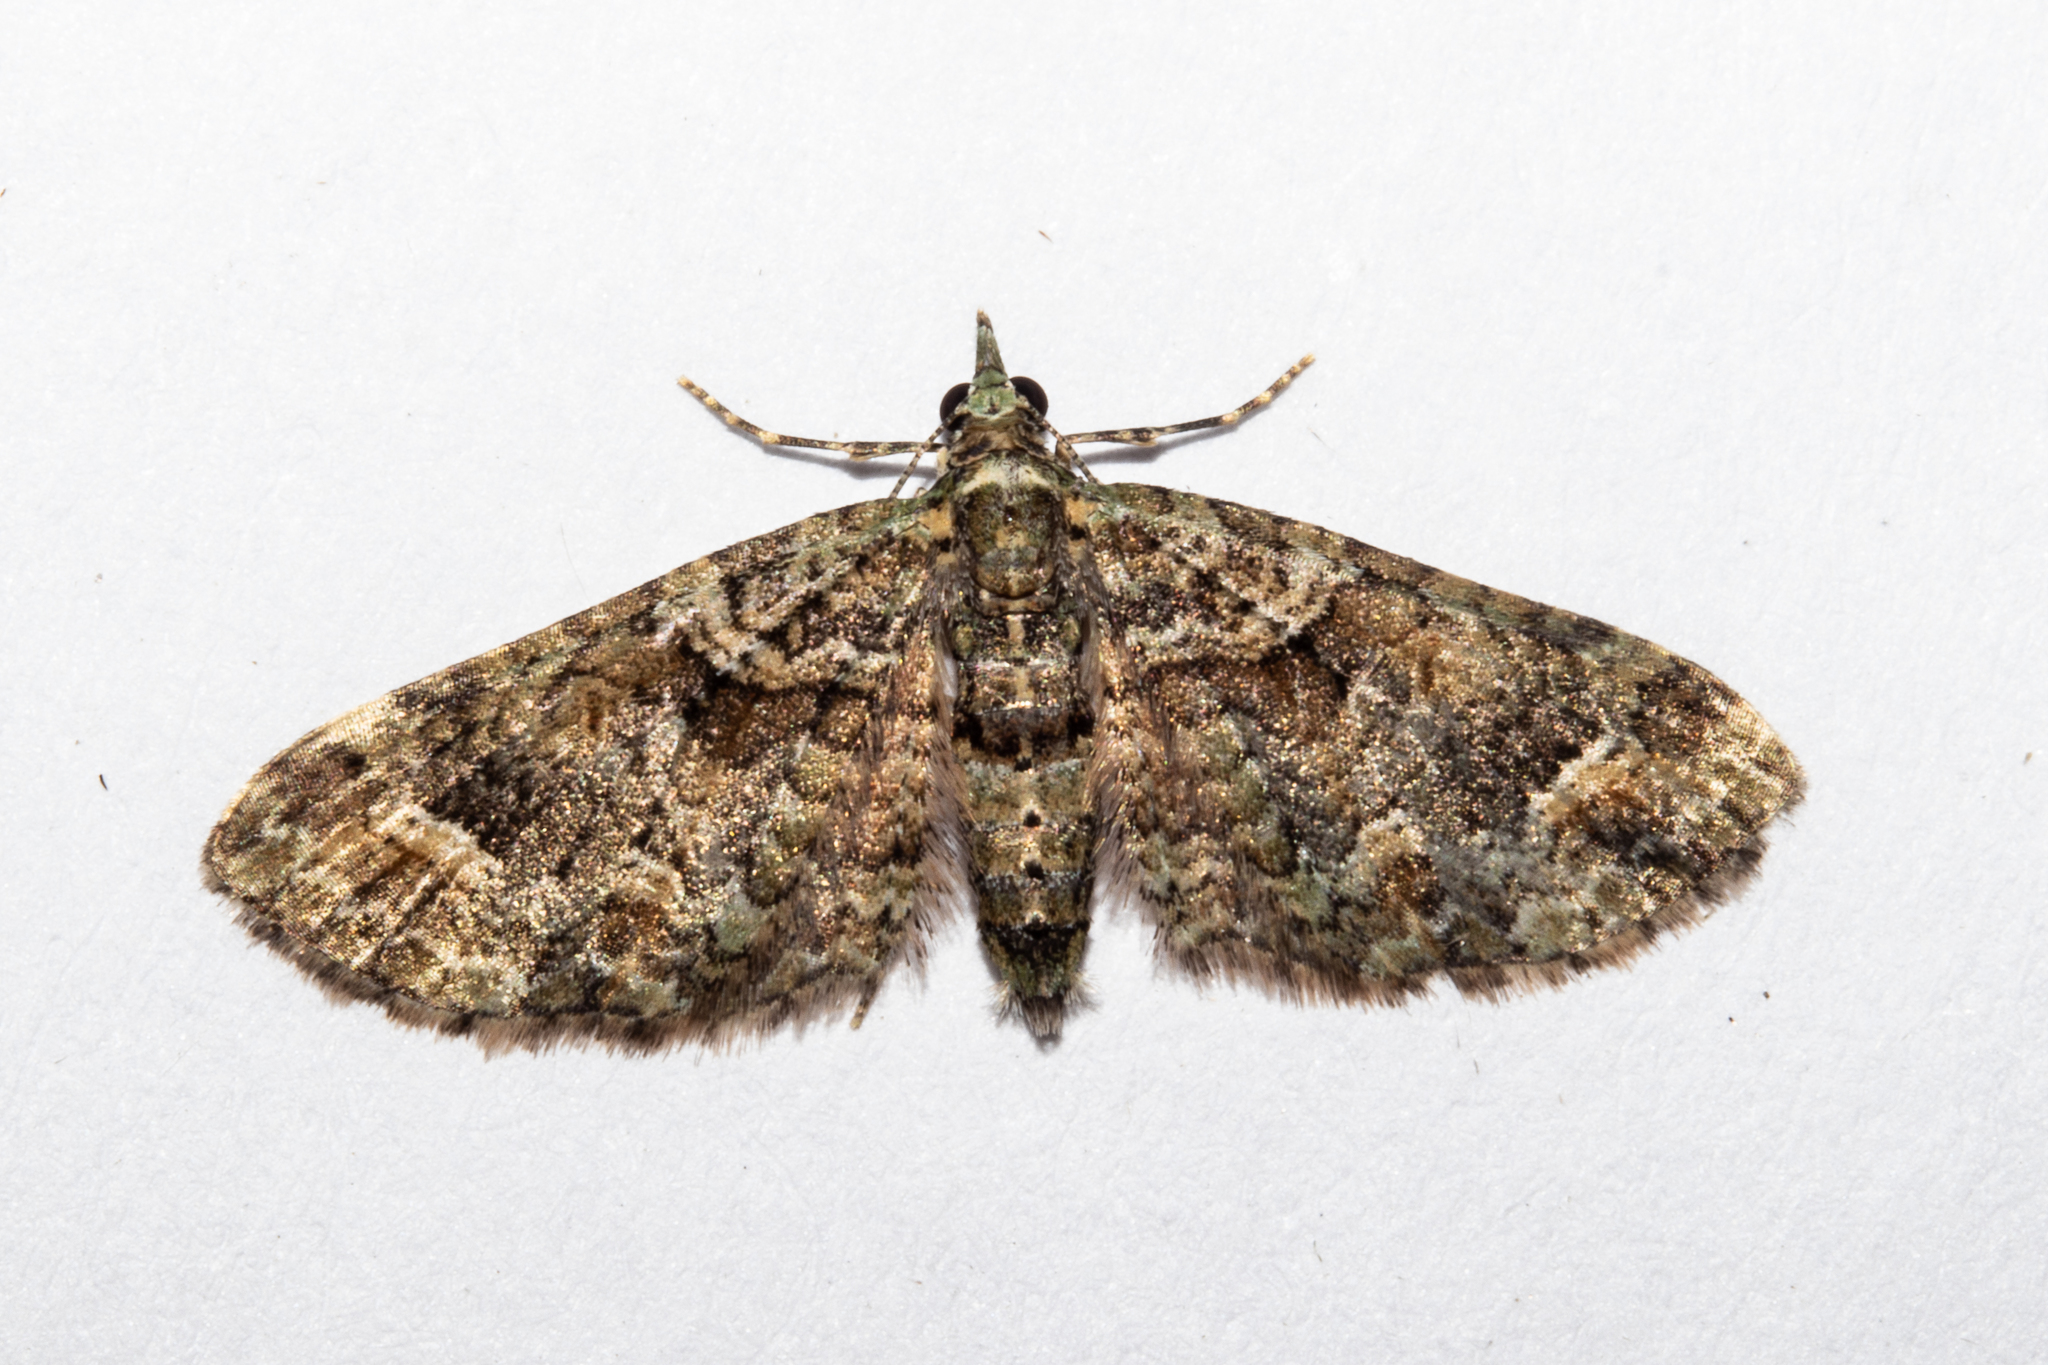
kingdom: Animalia
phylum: Arthropoda
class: Insecta
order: Lepidoptera
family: Geometridae
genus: Idaea
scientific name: Idaea mutanda
